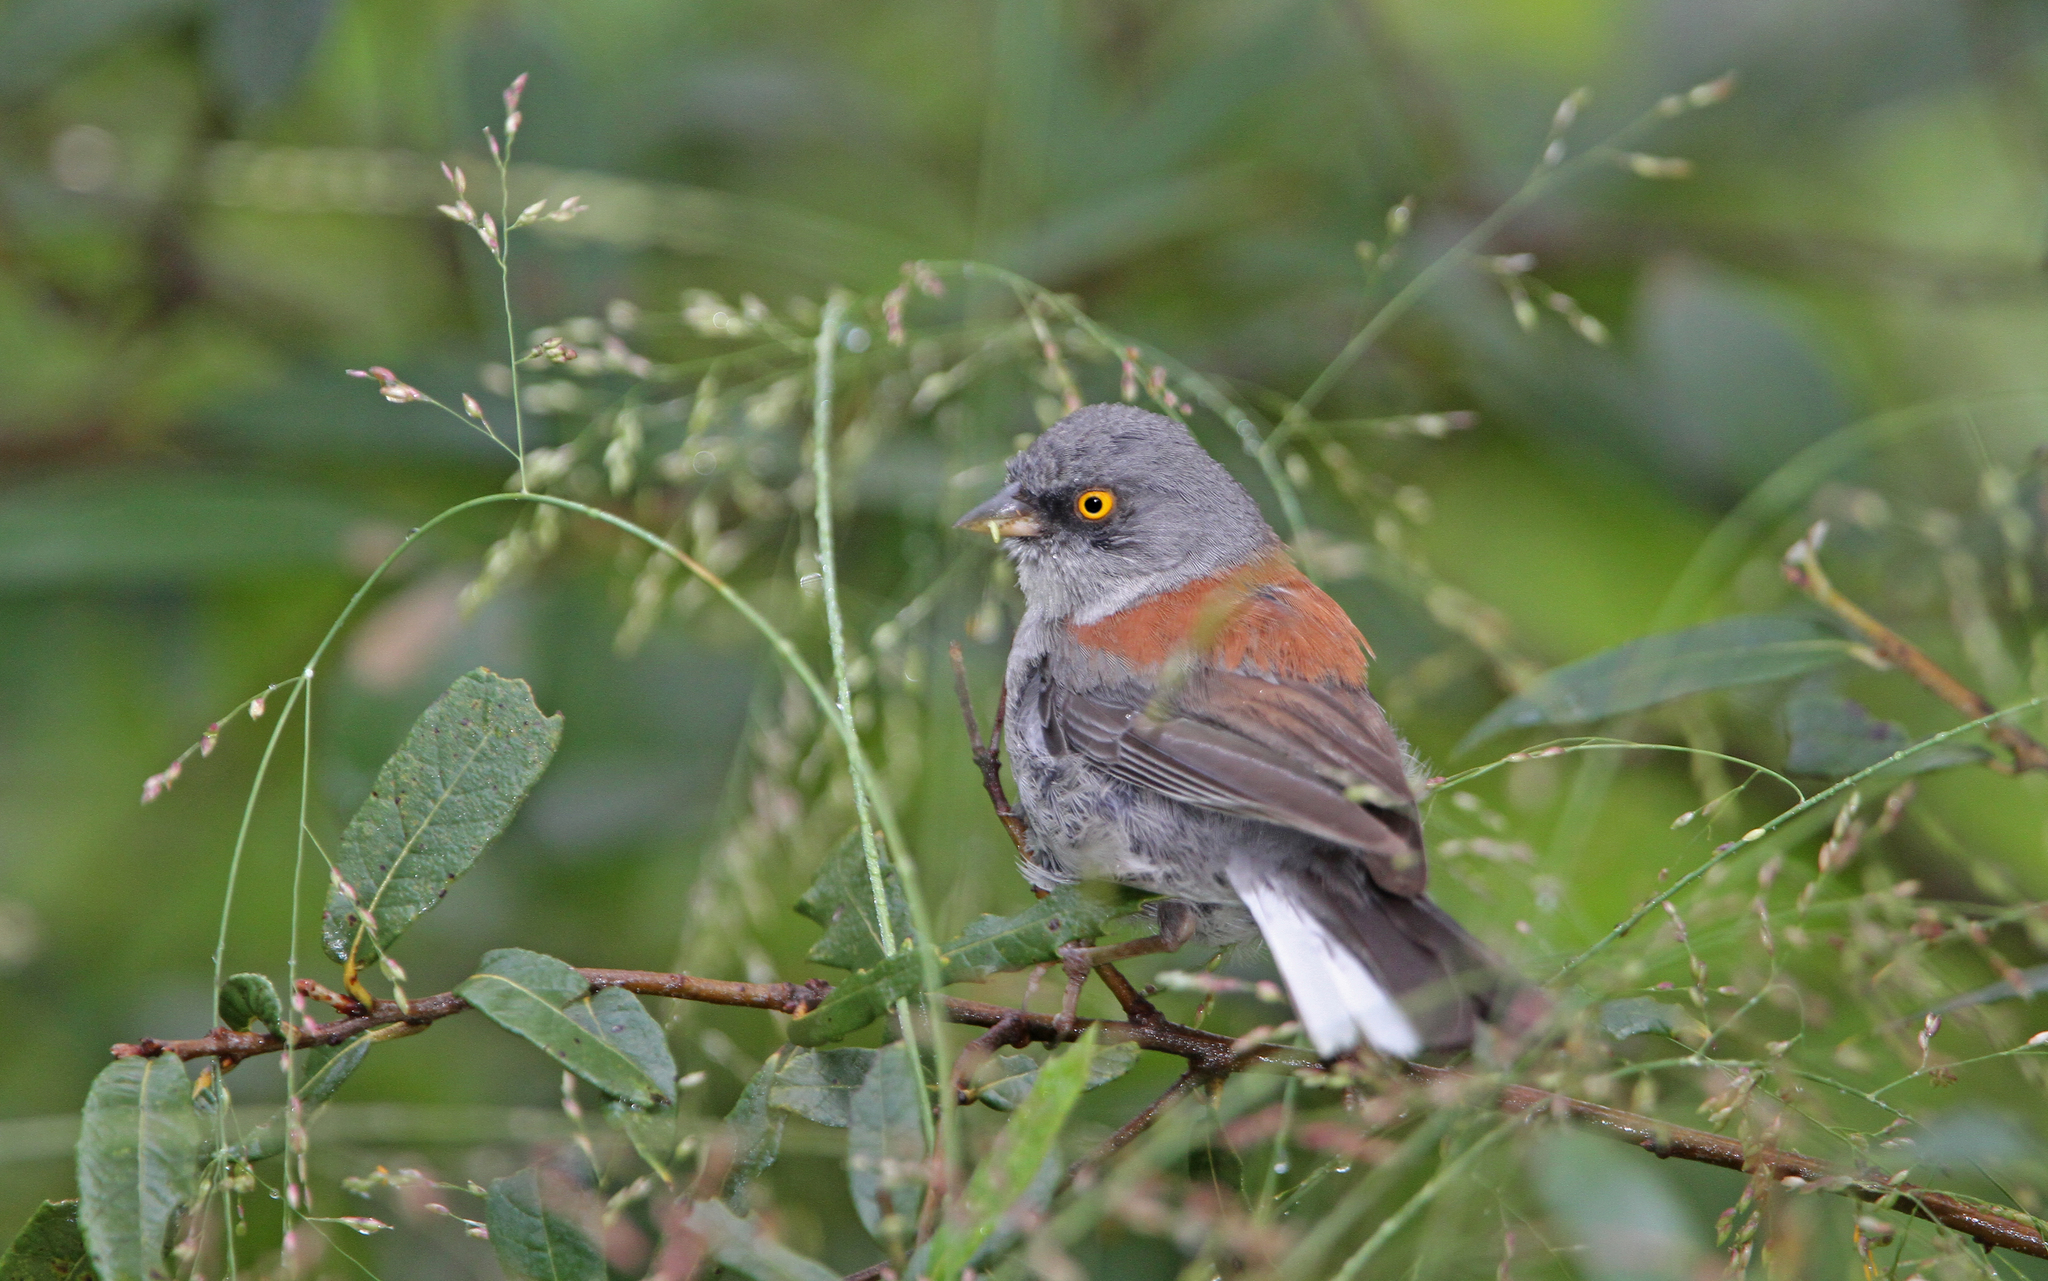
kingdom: Animalia
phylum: Chordata
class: Aves
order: Passeriformes
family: Passerellidae
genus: Junco
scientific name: Junco phaeonotus
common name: Yellow-eyed junco
